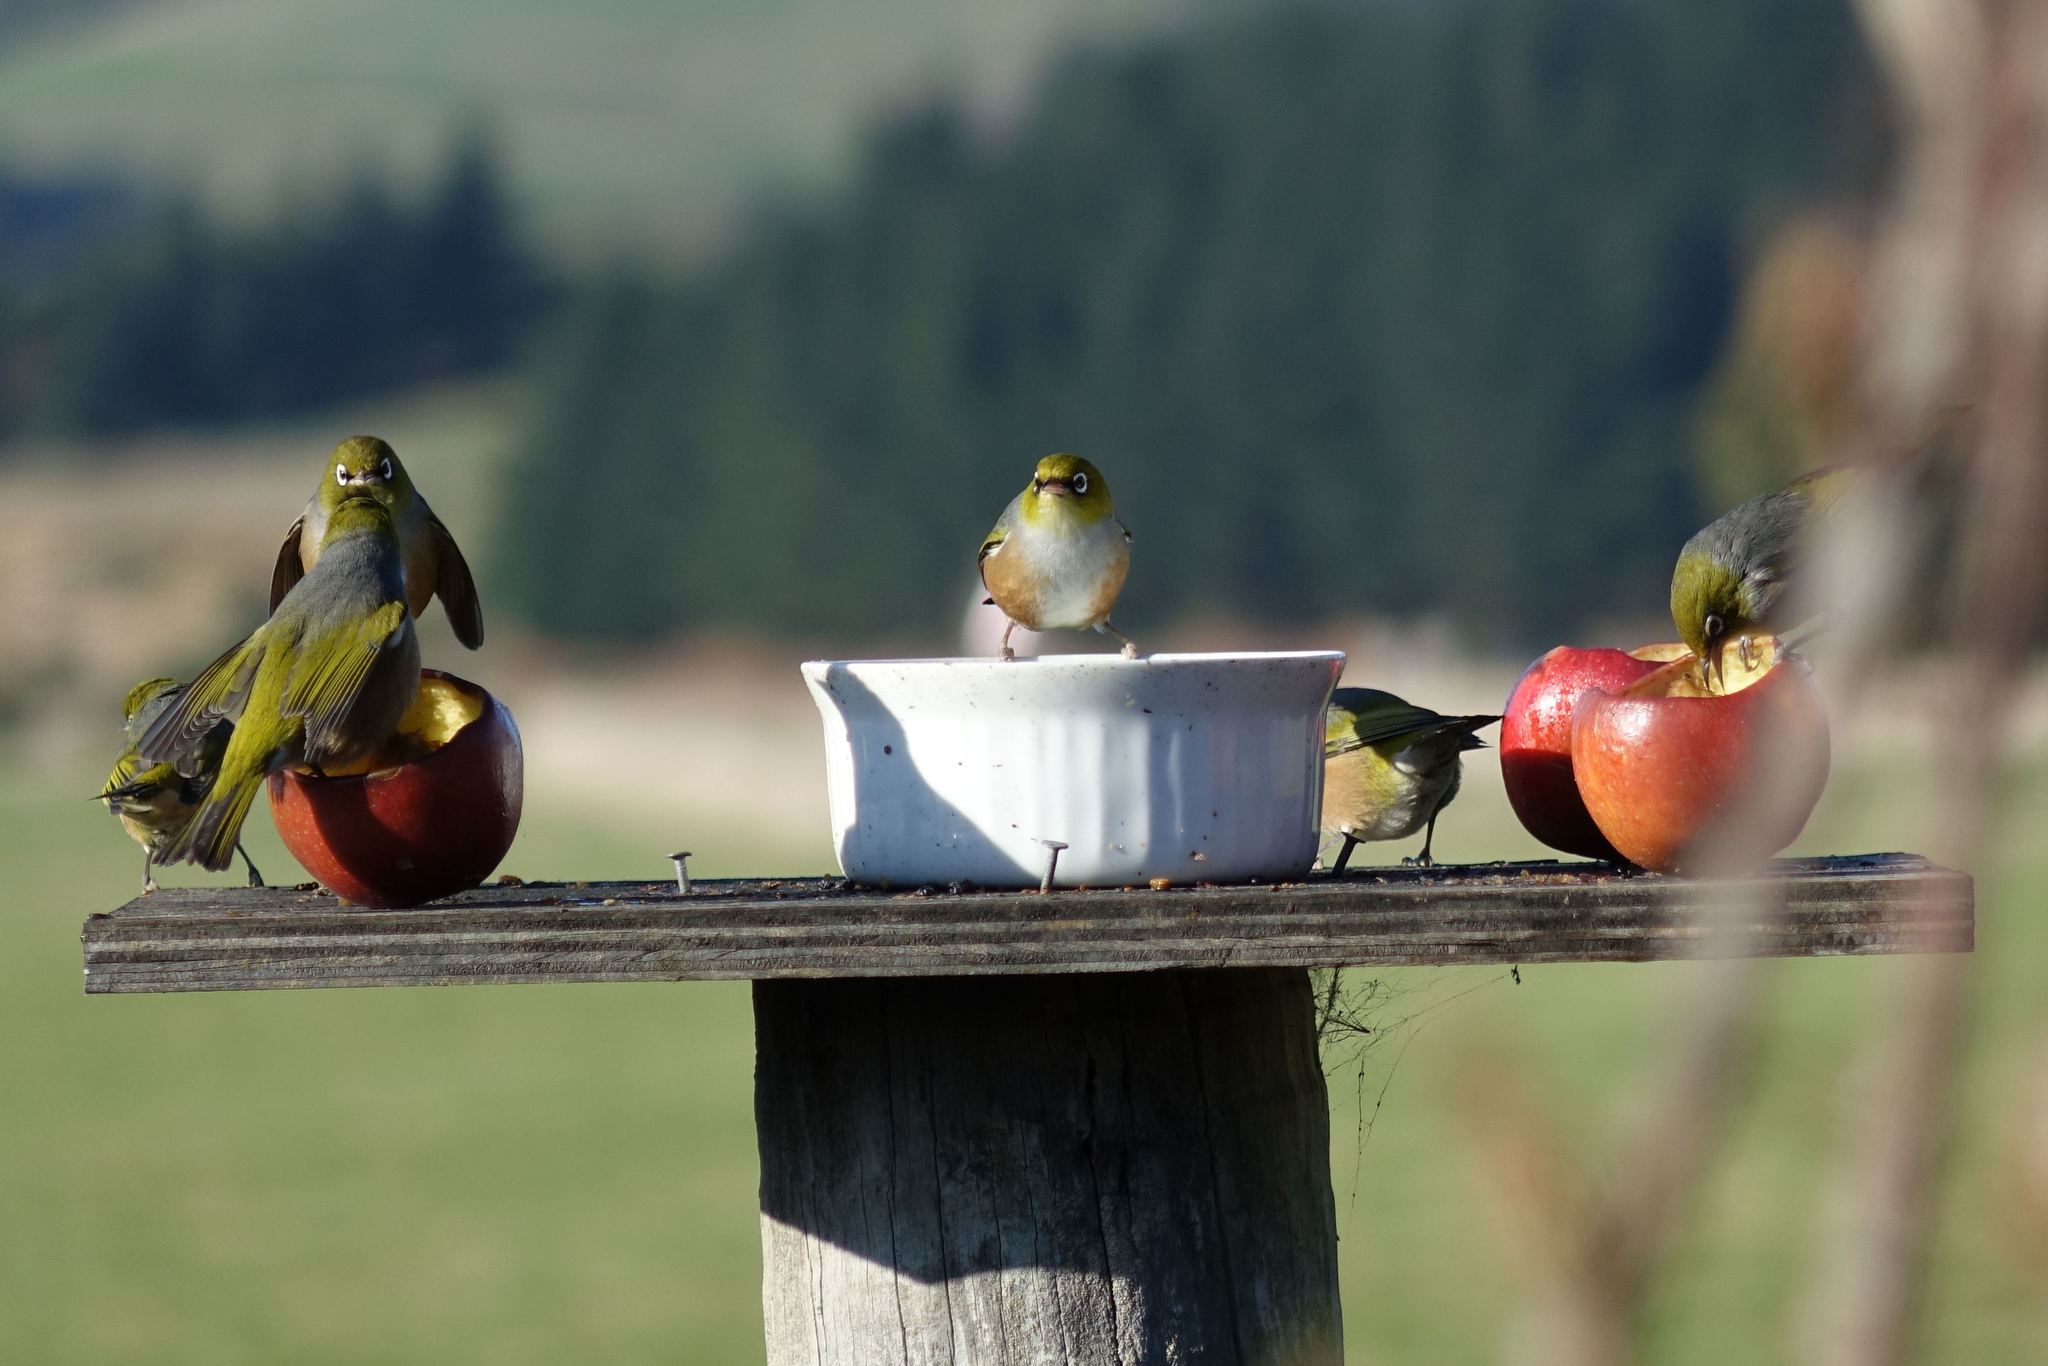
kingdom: Animalia
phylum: Chordata
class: Aves
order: Passeriformes
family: Zosteropidae
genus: Zosterops
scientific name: Zosterops lateralis
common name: Silvereye
